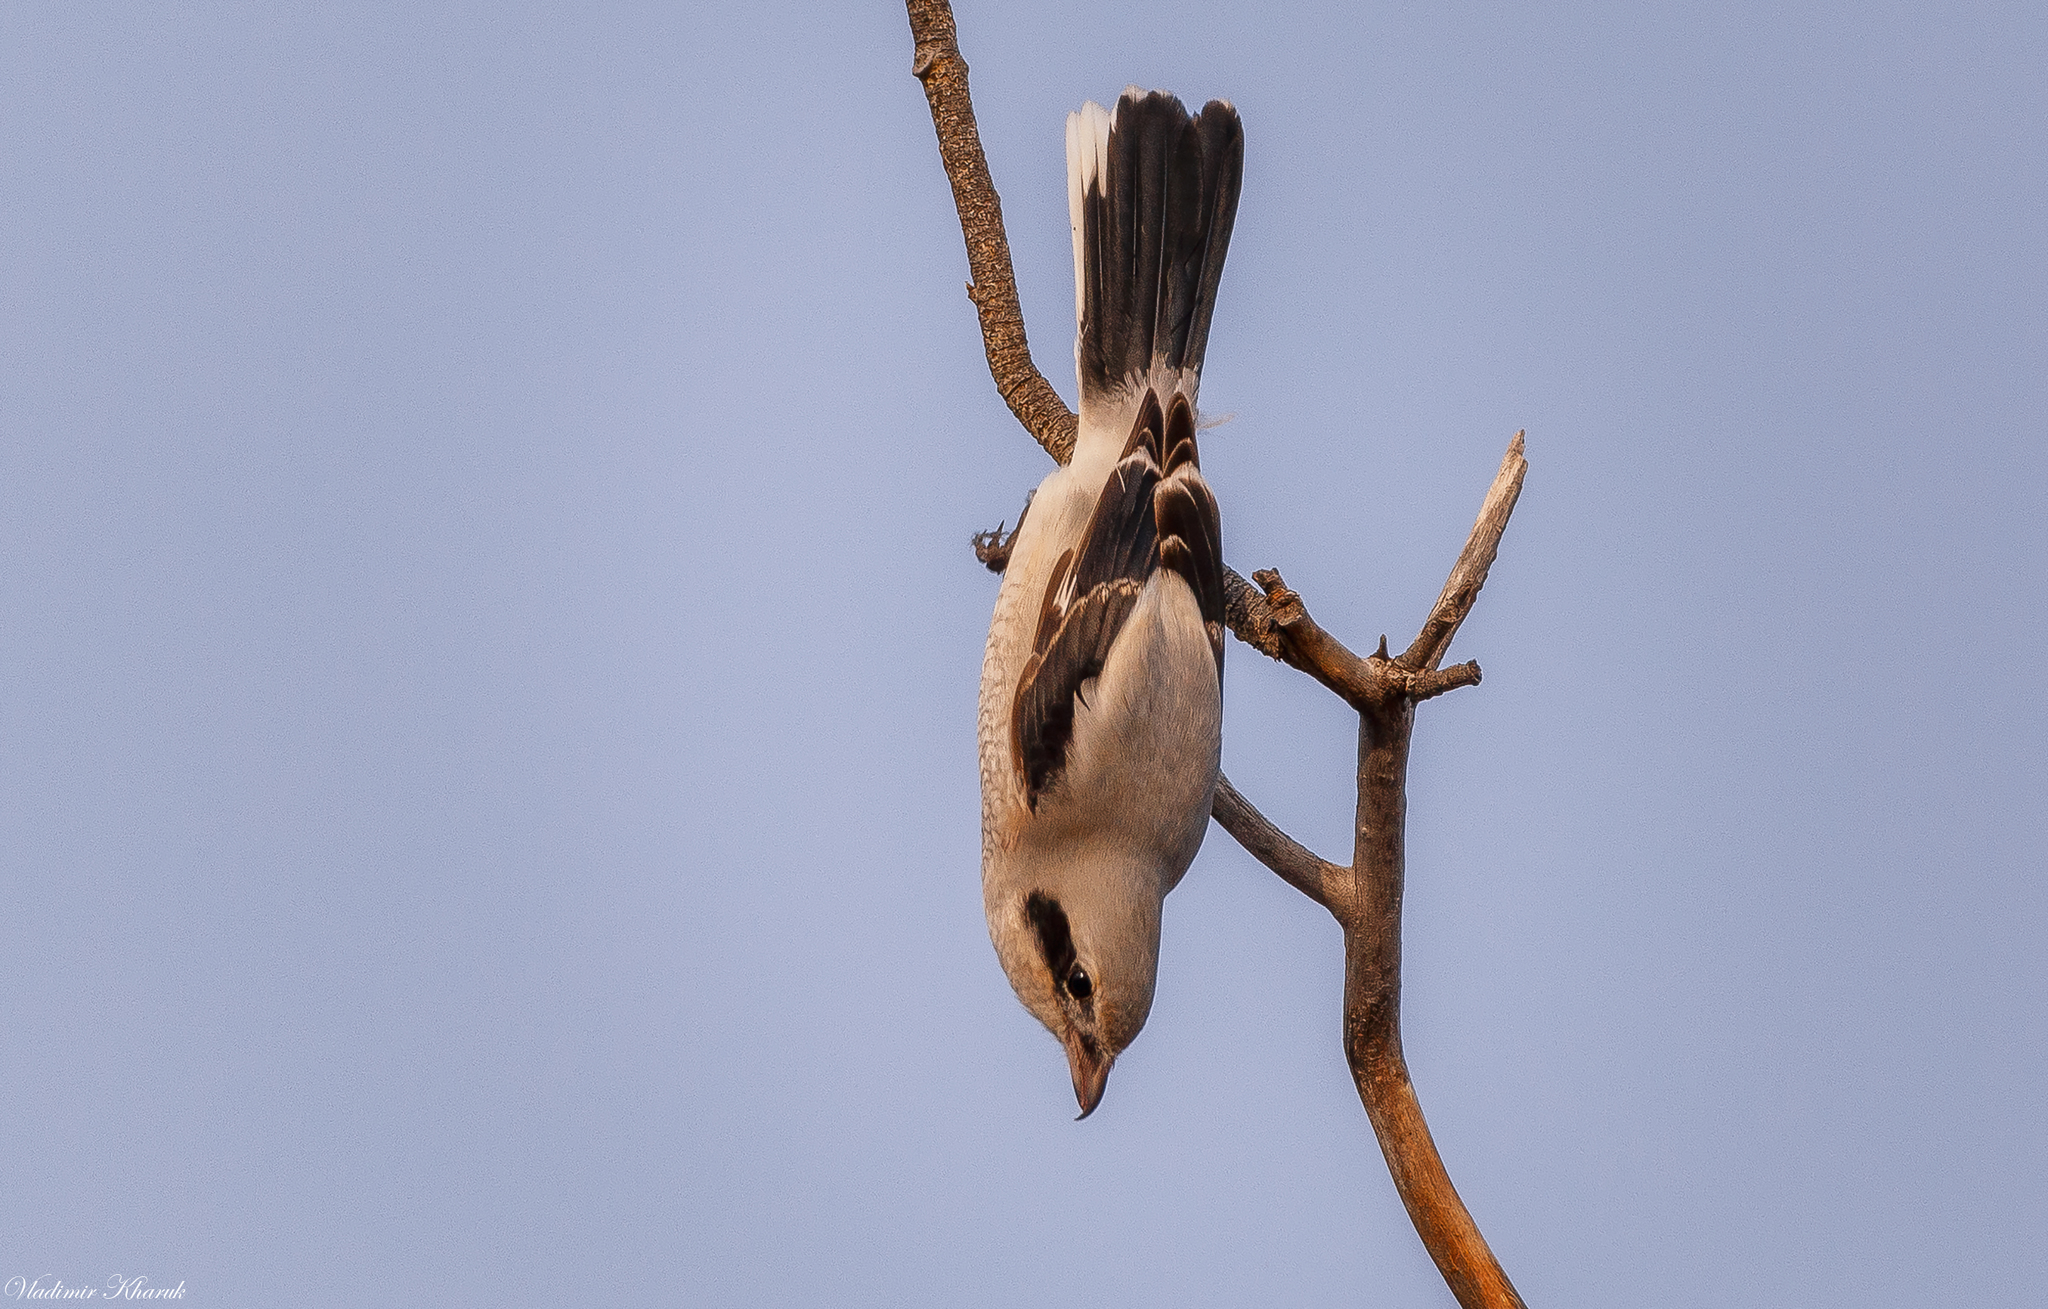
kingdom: Animalia
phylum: Chordata
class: Aves
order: Passeriformes
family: Laniidae
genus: Lanius
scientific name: Lanius excubitor
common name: Great grey shrike
